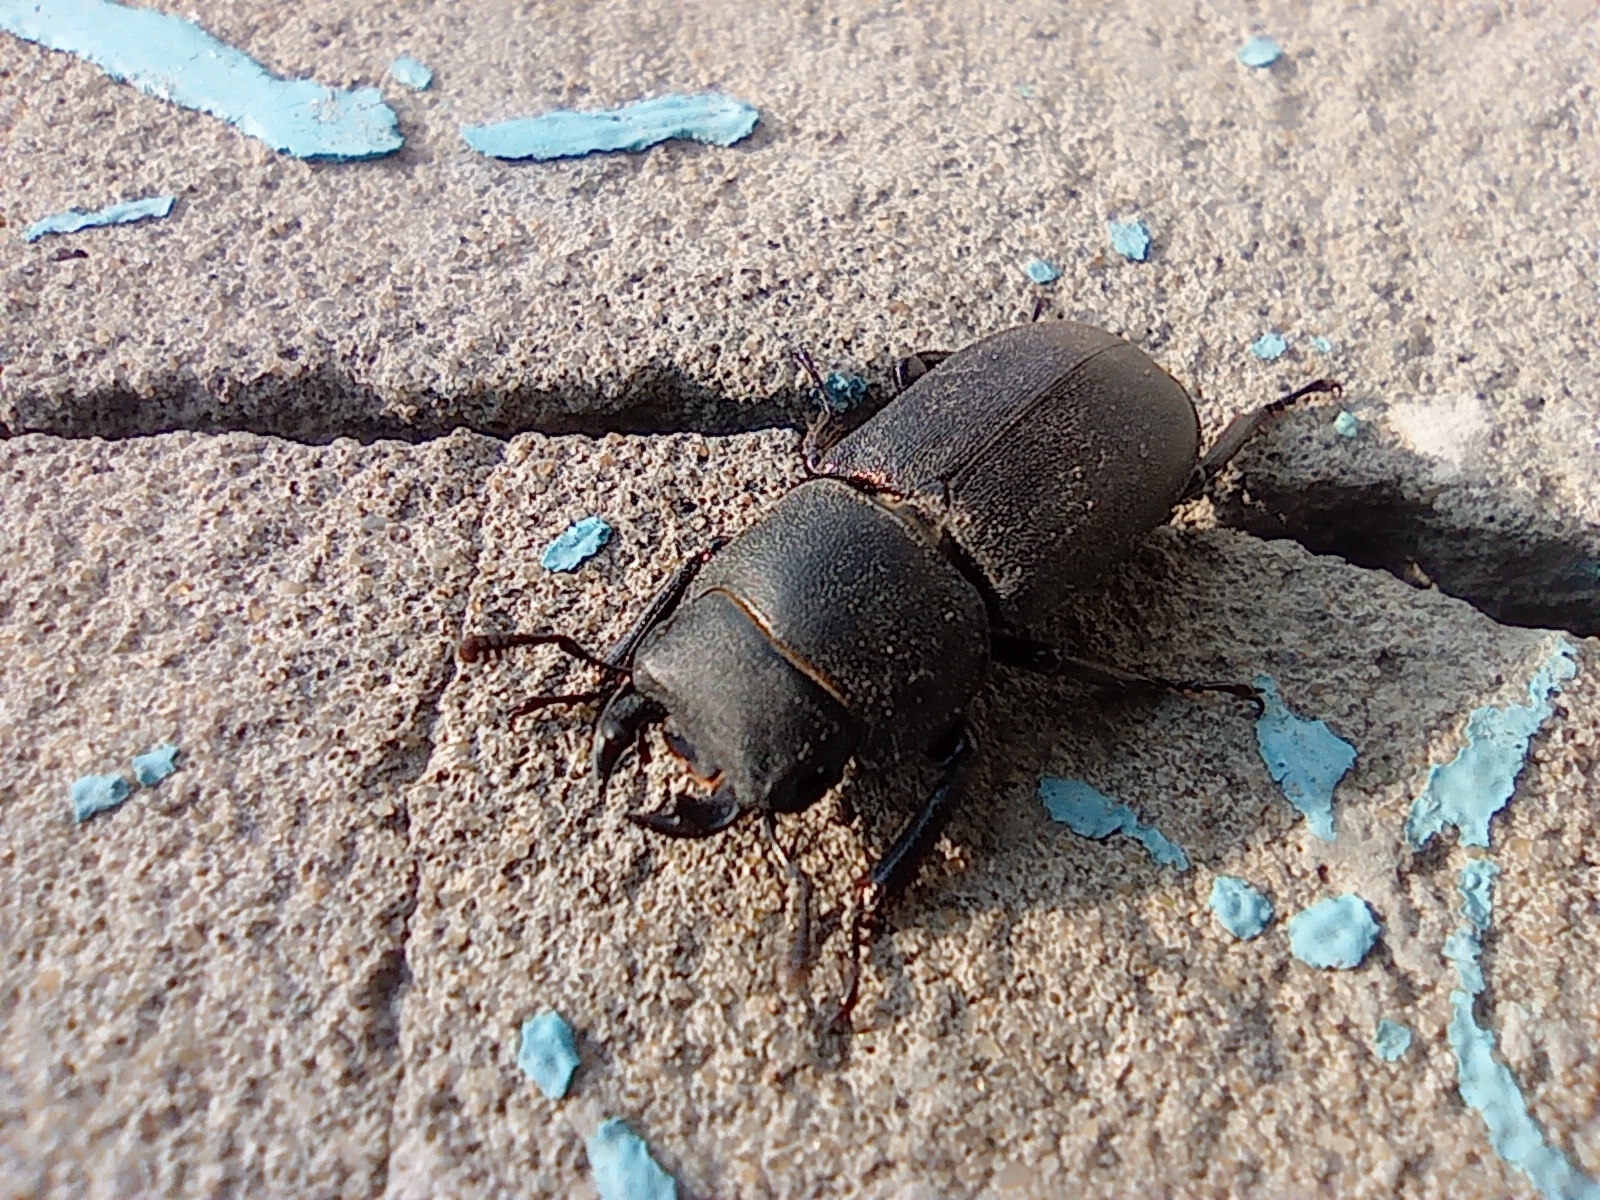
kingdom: Animalia
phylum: Arthropoda
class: Insecta
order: Coleoptera
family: Lucanidae
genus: Dorcus
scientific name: Dorcus parallelipipedus
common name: Lesser stag beetle
